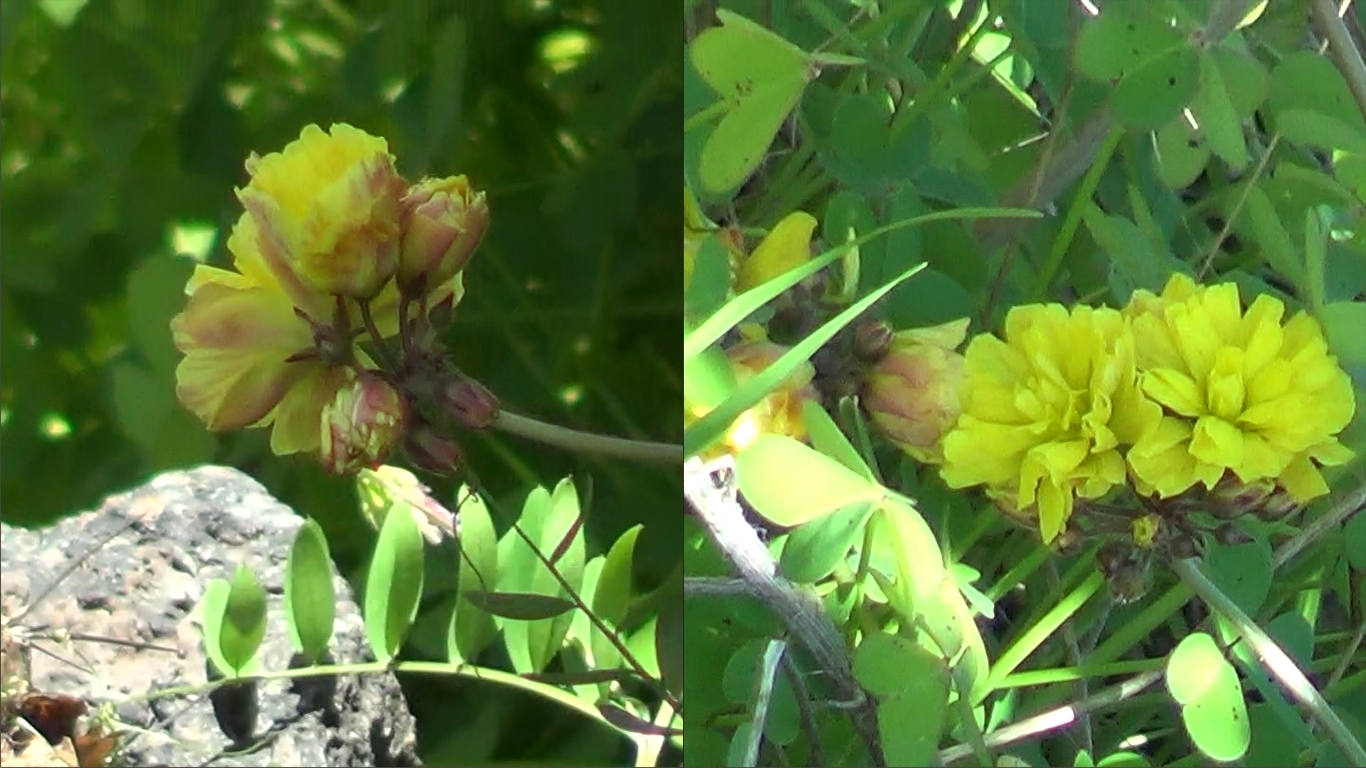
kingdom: Plantae
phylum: Tracheophyta
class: Magnoliopsida
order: Oxalidales
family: Oxalidaceae
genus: Oxalis
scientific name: Oxalis pes-caprae
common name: Bermuda-buttercup
